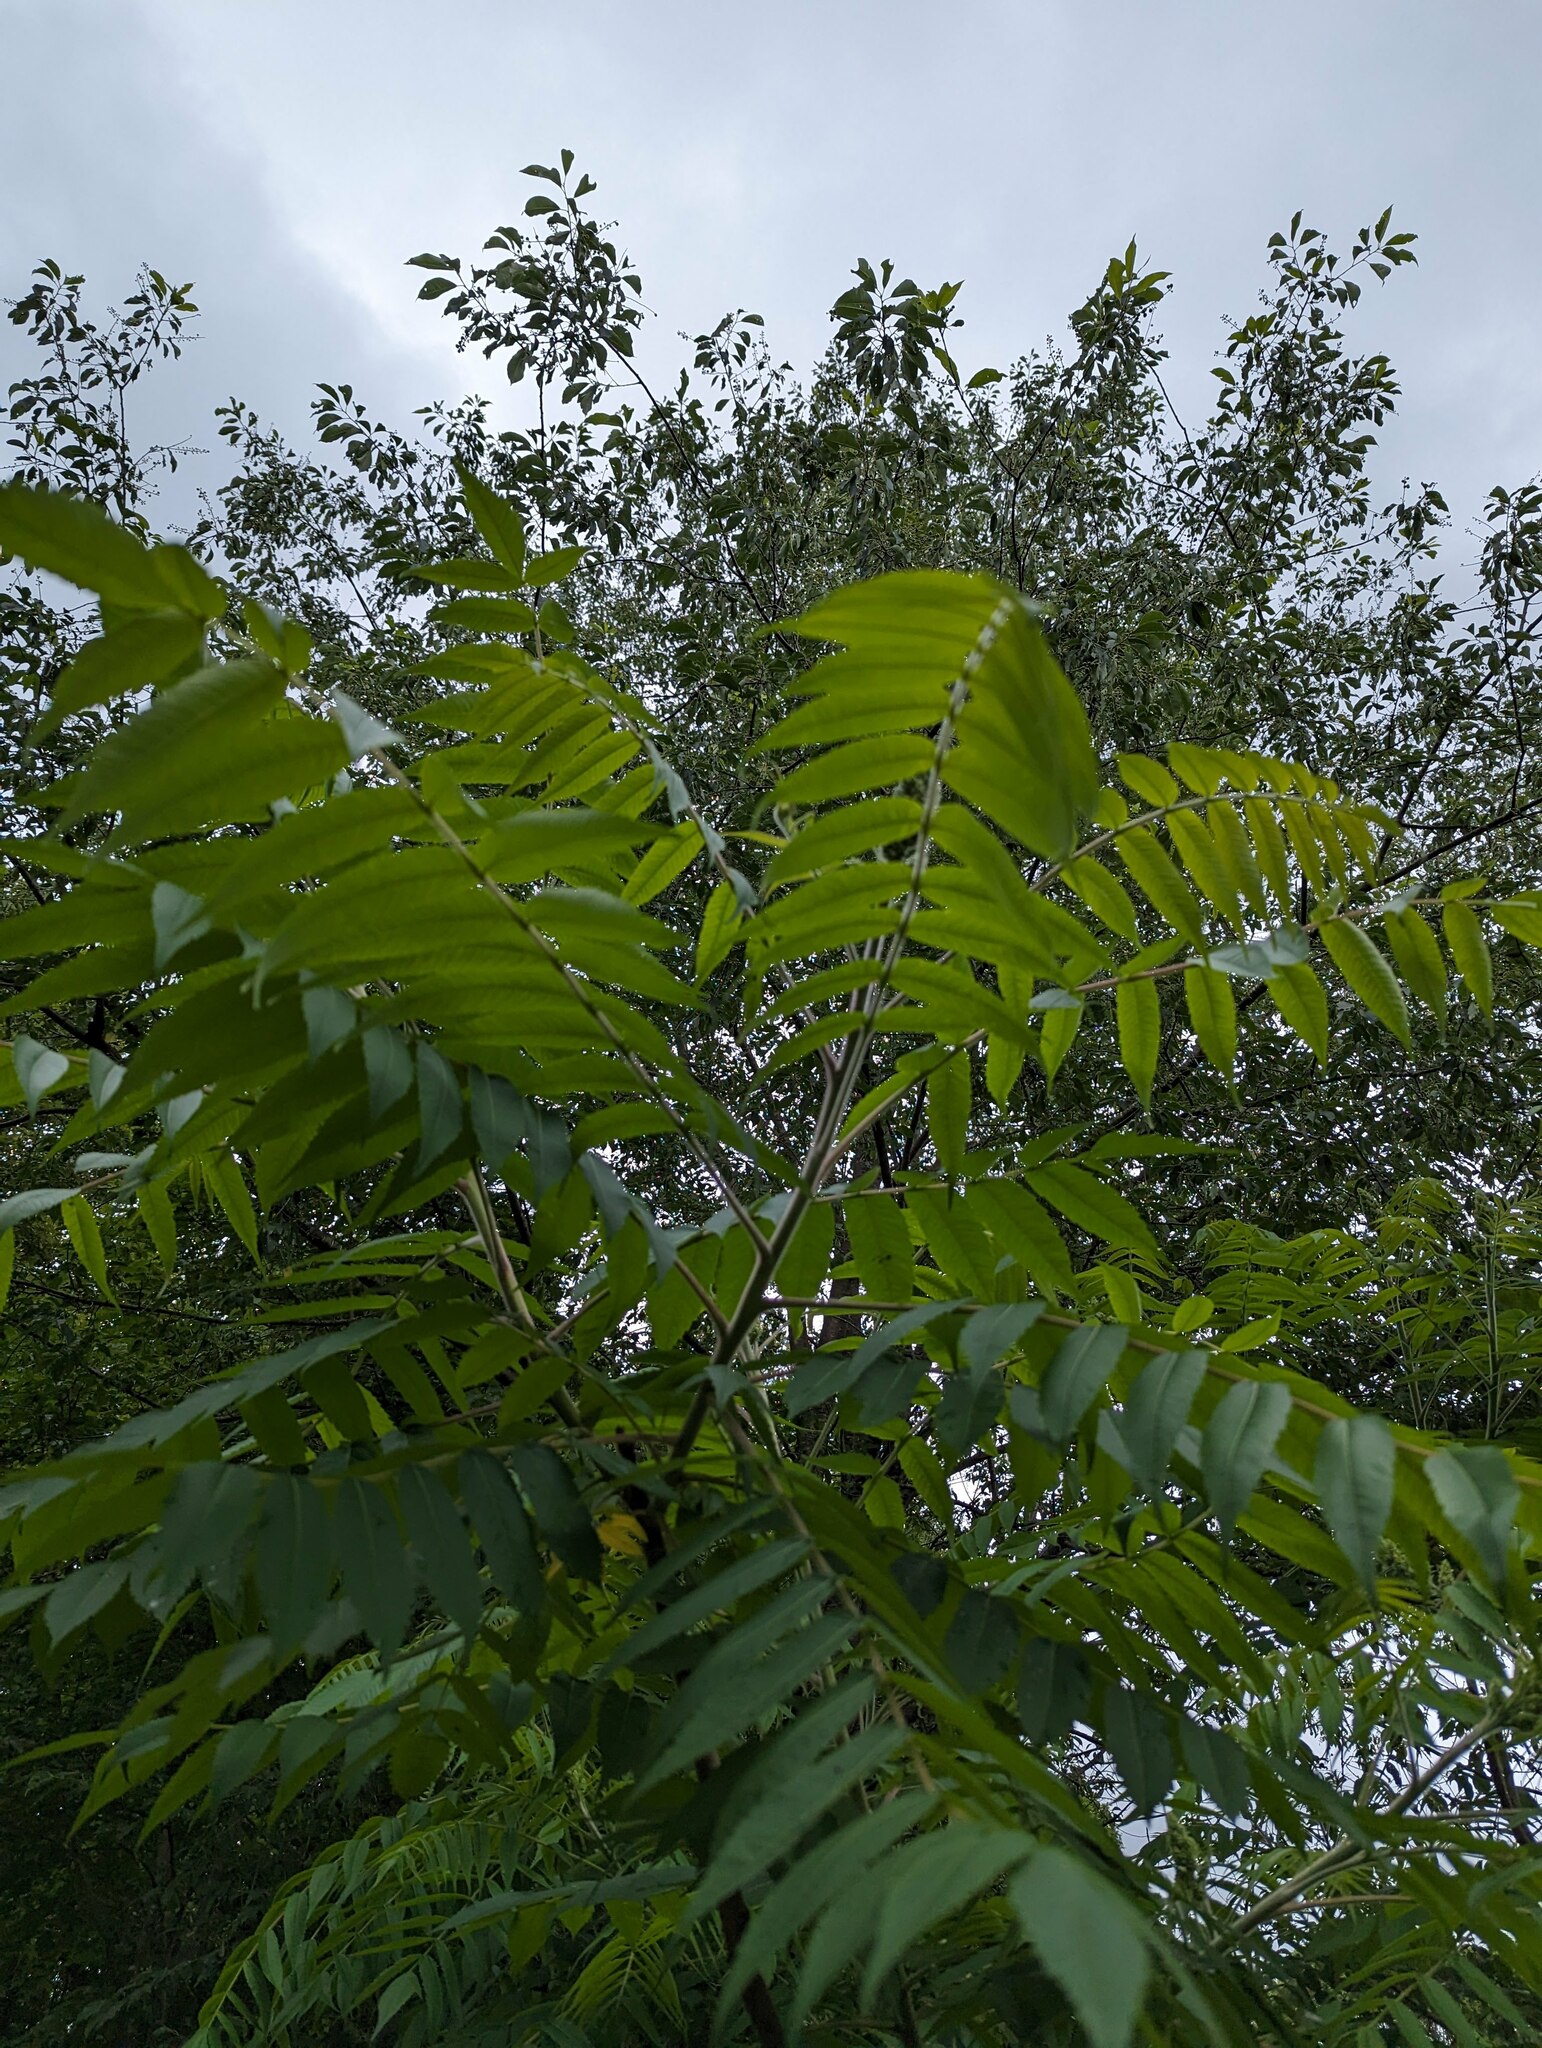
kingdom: Plantae
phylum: Tracheophyta
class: Magnoliopsida
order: Sapindales
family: Anacardiaceae
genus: Rhus
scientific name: Rhus typhina
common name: Staghorn sumac
